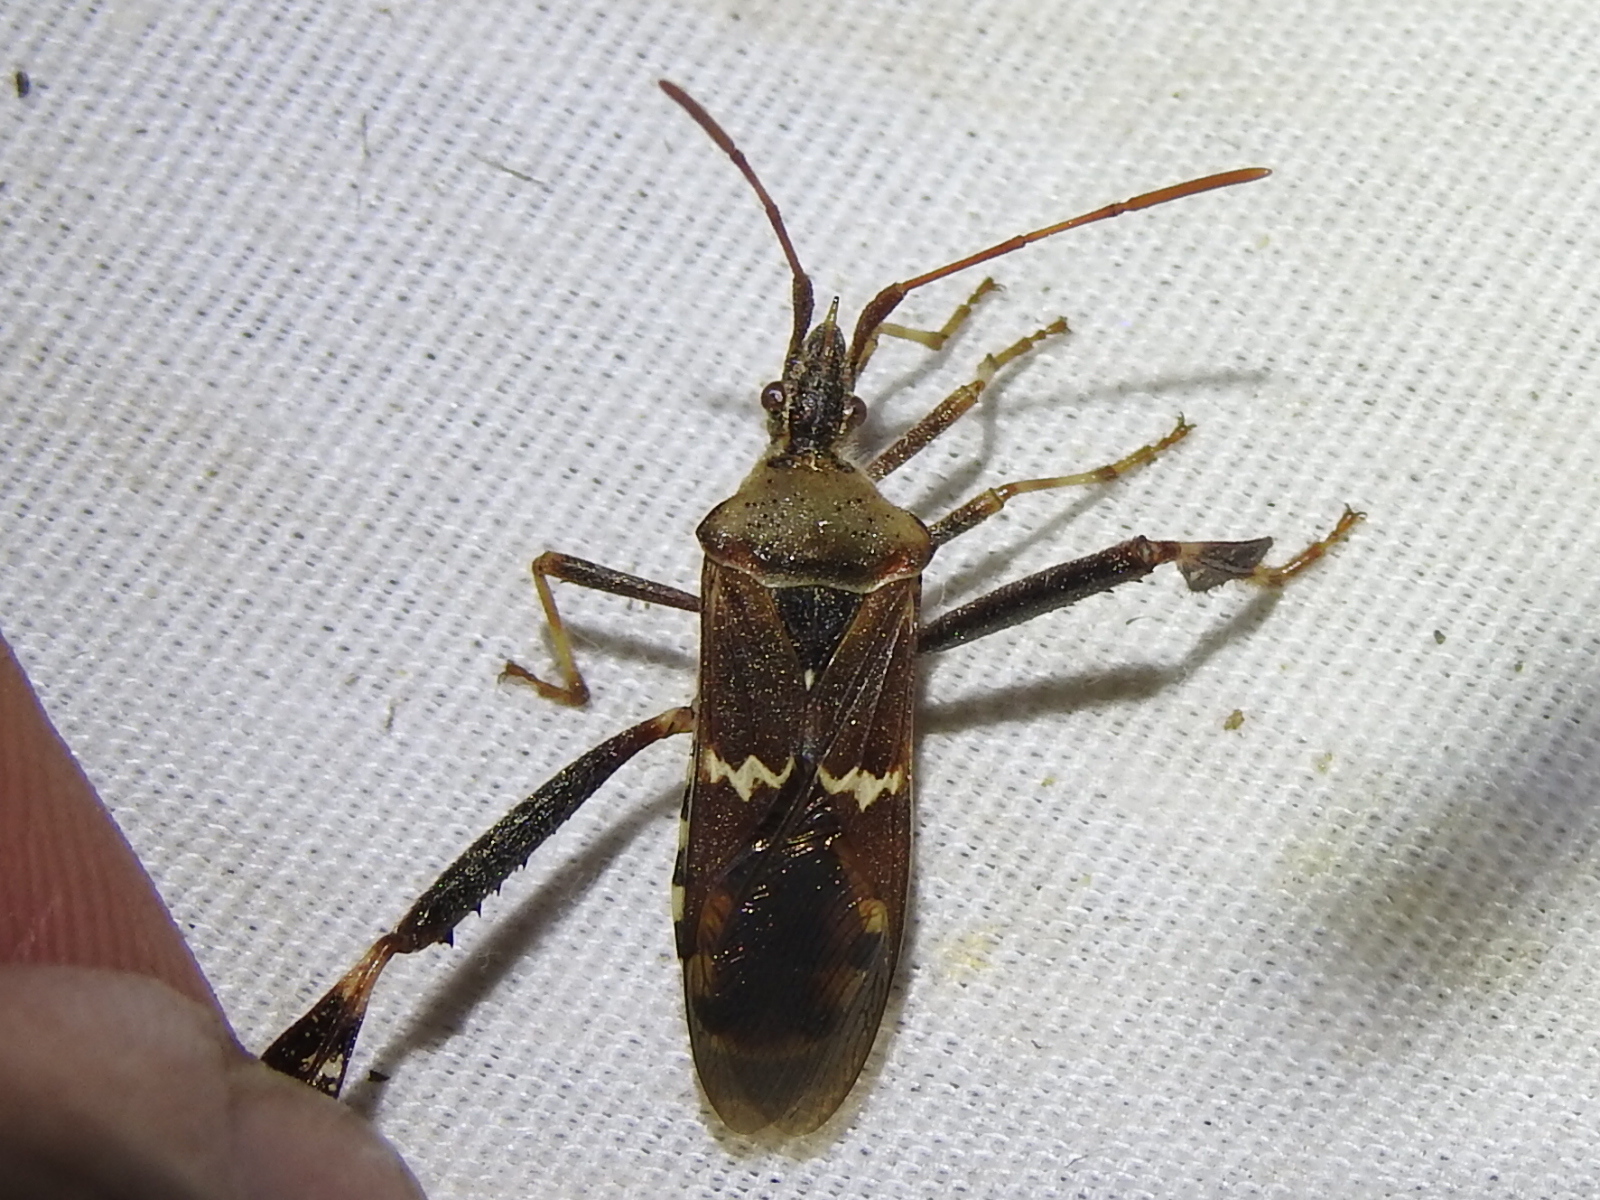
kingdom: Animalia
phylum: Arthropoda
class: Insecta
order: Hemiptera
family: Coreidae
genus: Leptoglossus
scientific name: Leptoglossus clypealis
